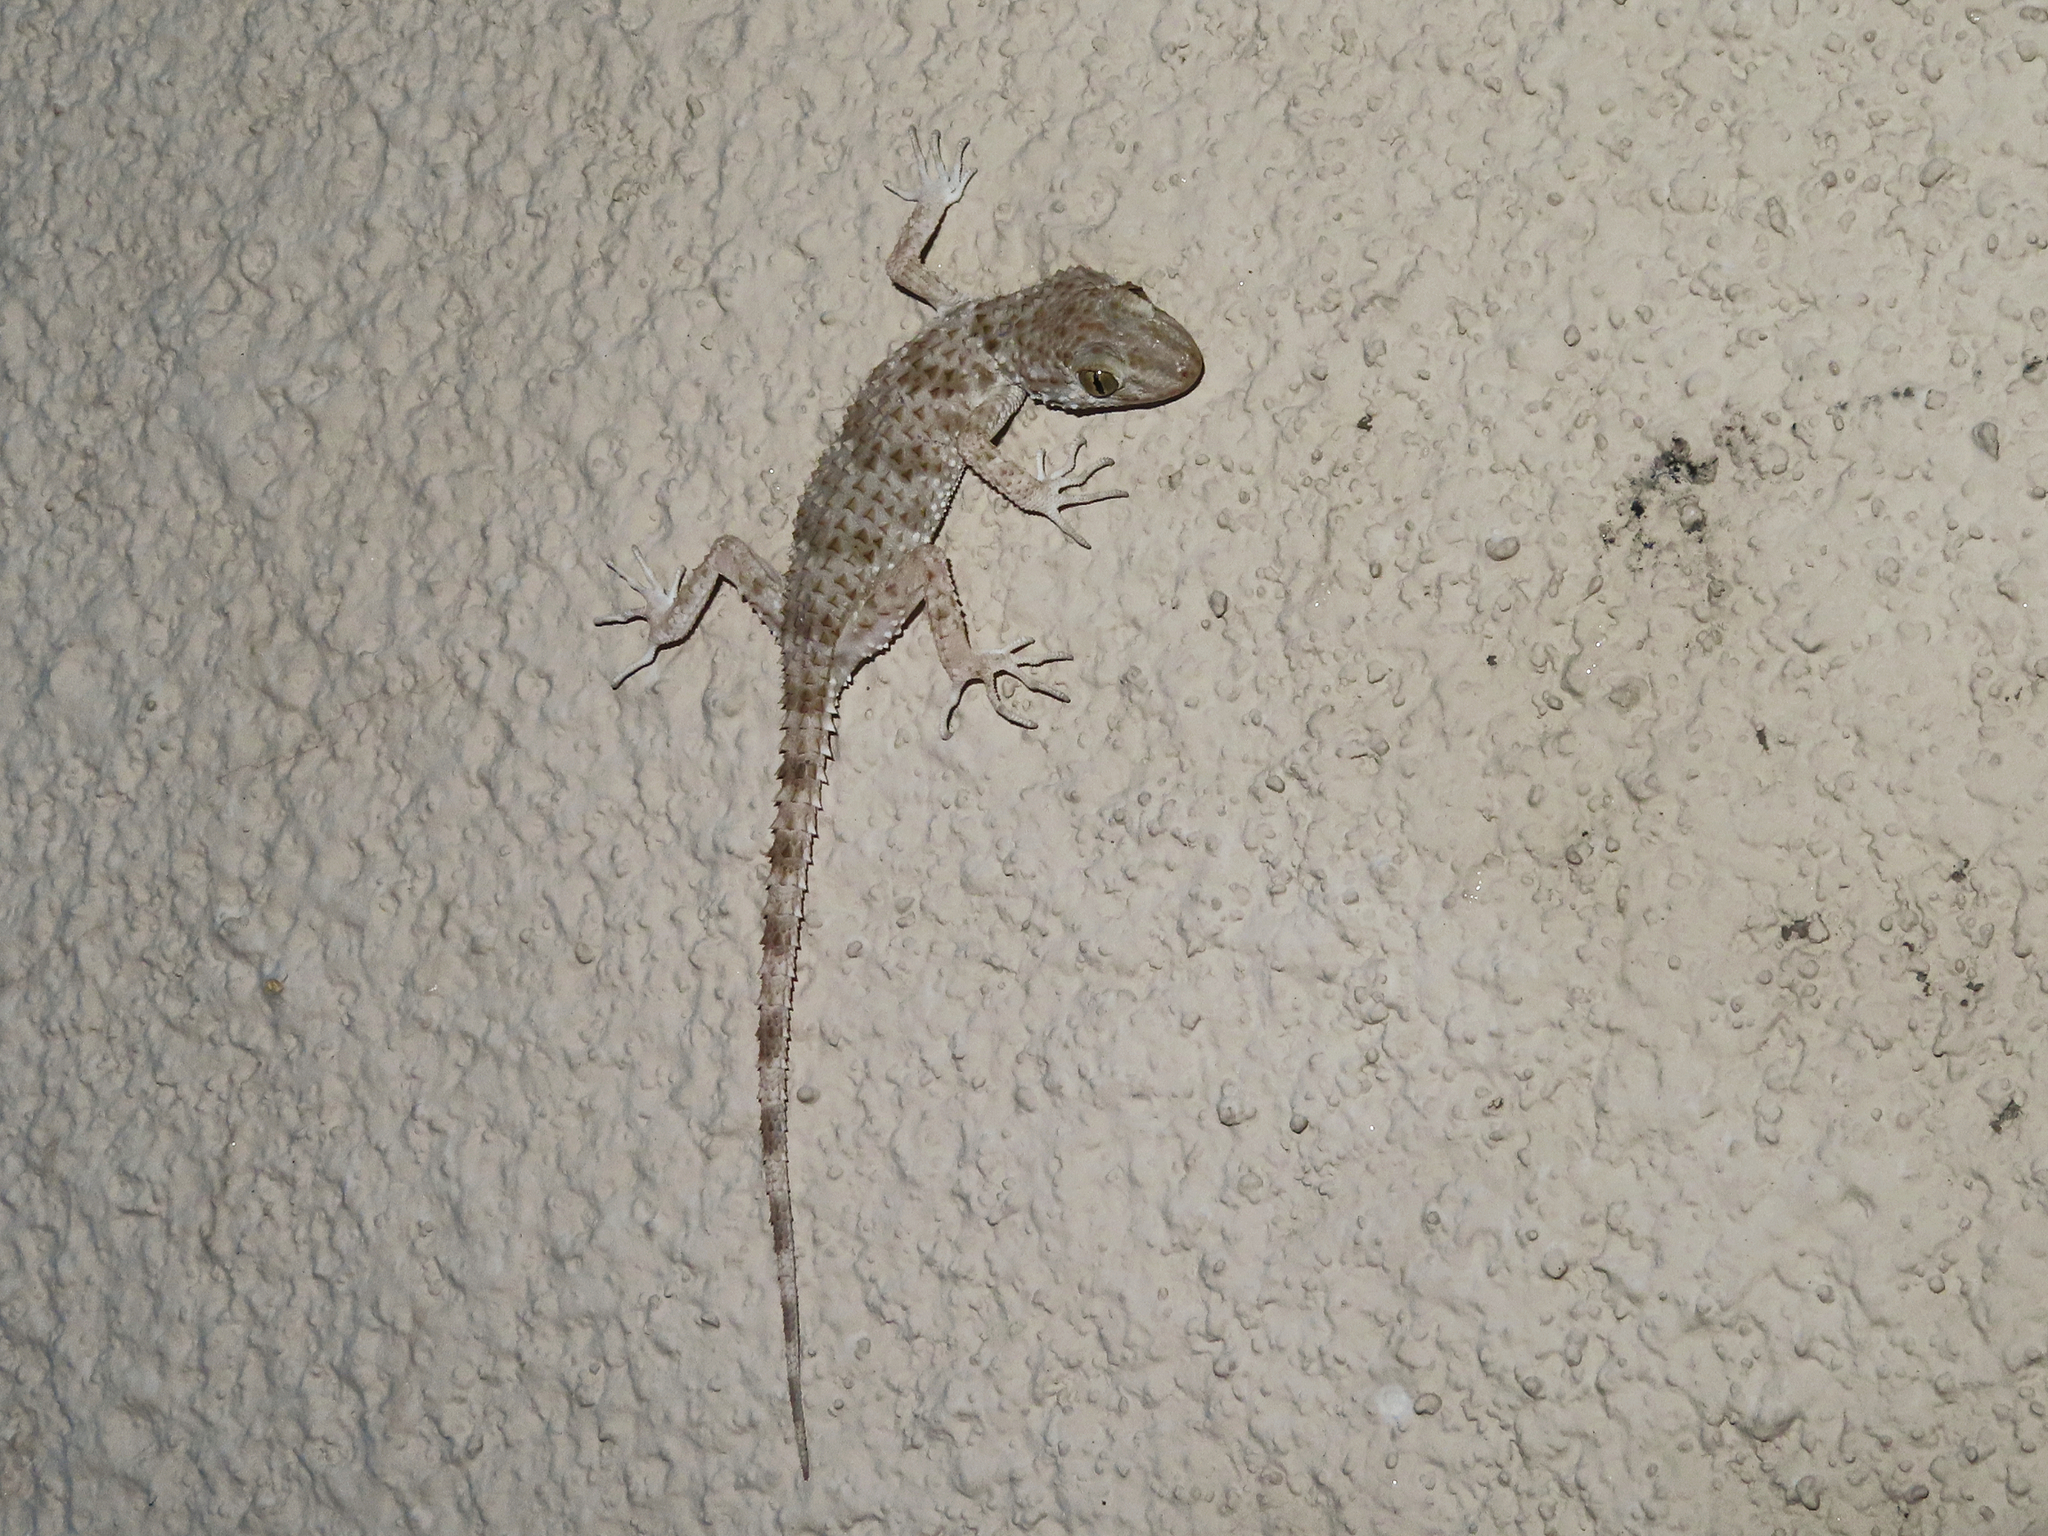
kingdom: Animalia
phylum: Chordata
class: Squamata
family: Gekkonidae
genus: Tenuidactylus
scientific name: Tenuidactylus caspius
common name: Caspian bent-toed gecko
